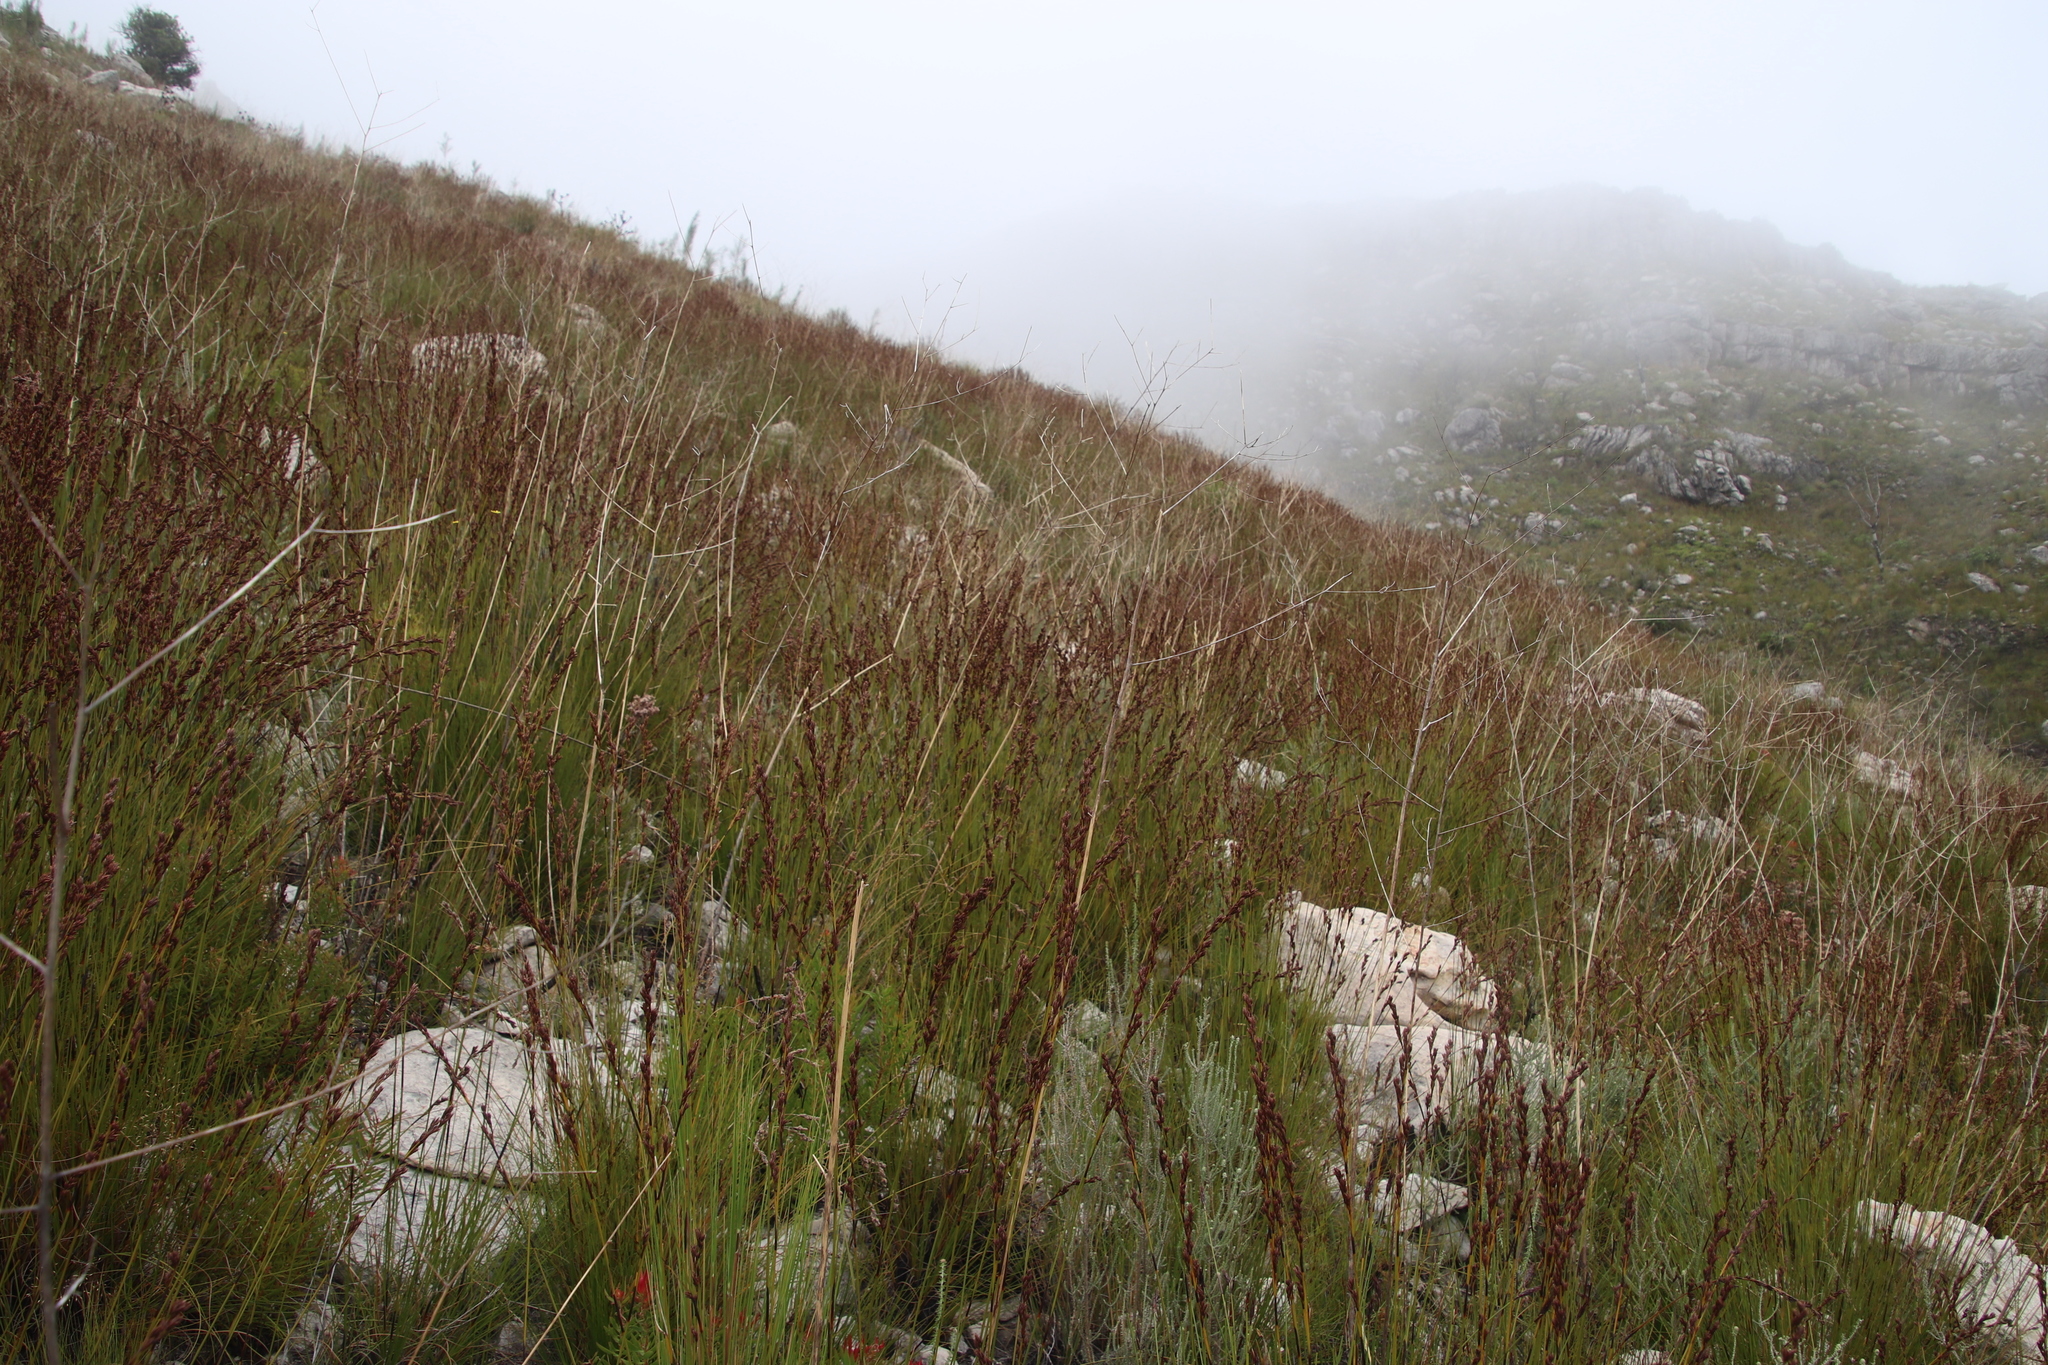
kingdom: Plantae
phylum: Tracheophyta
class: Liliopsida
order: Poales
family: Cyperaceae
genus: Tetraria
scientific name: Tetraria flexuosa
